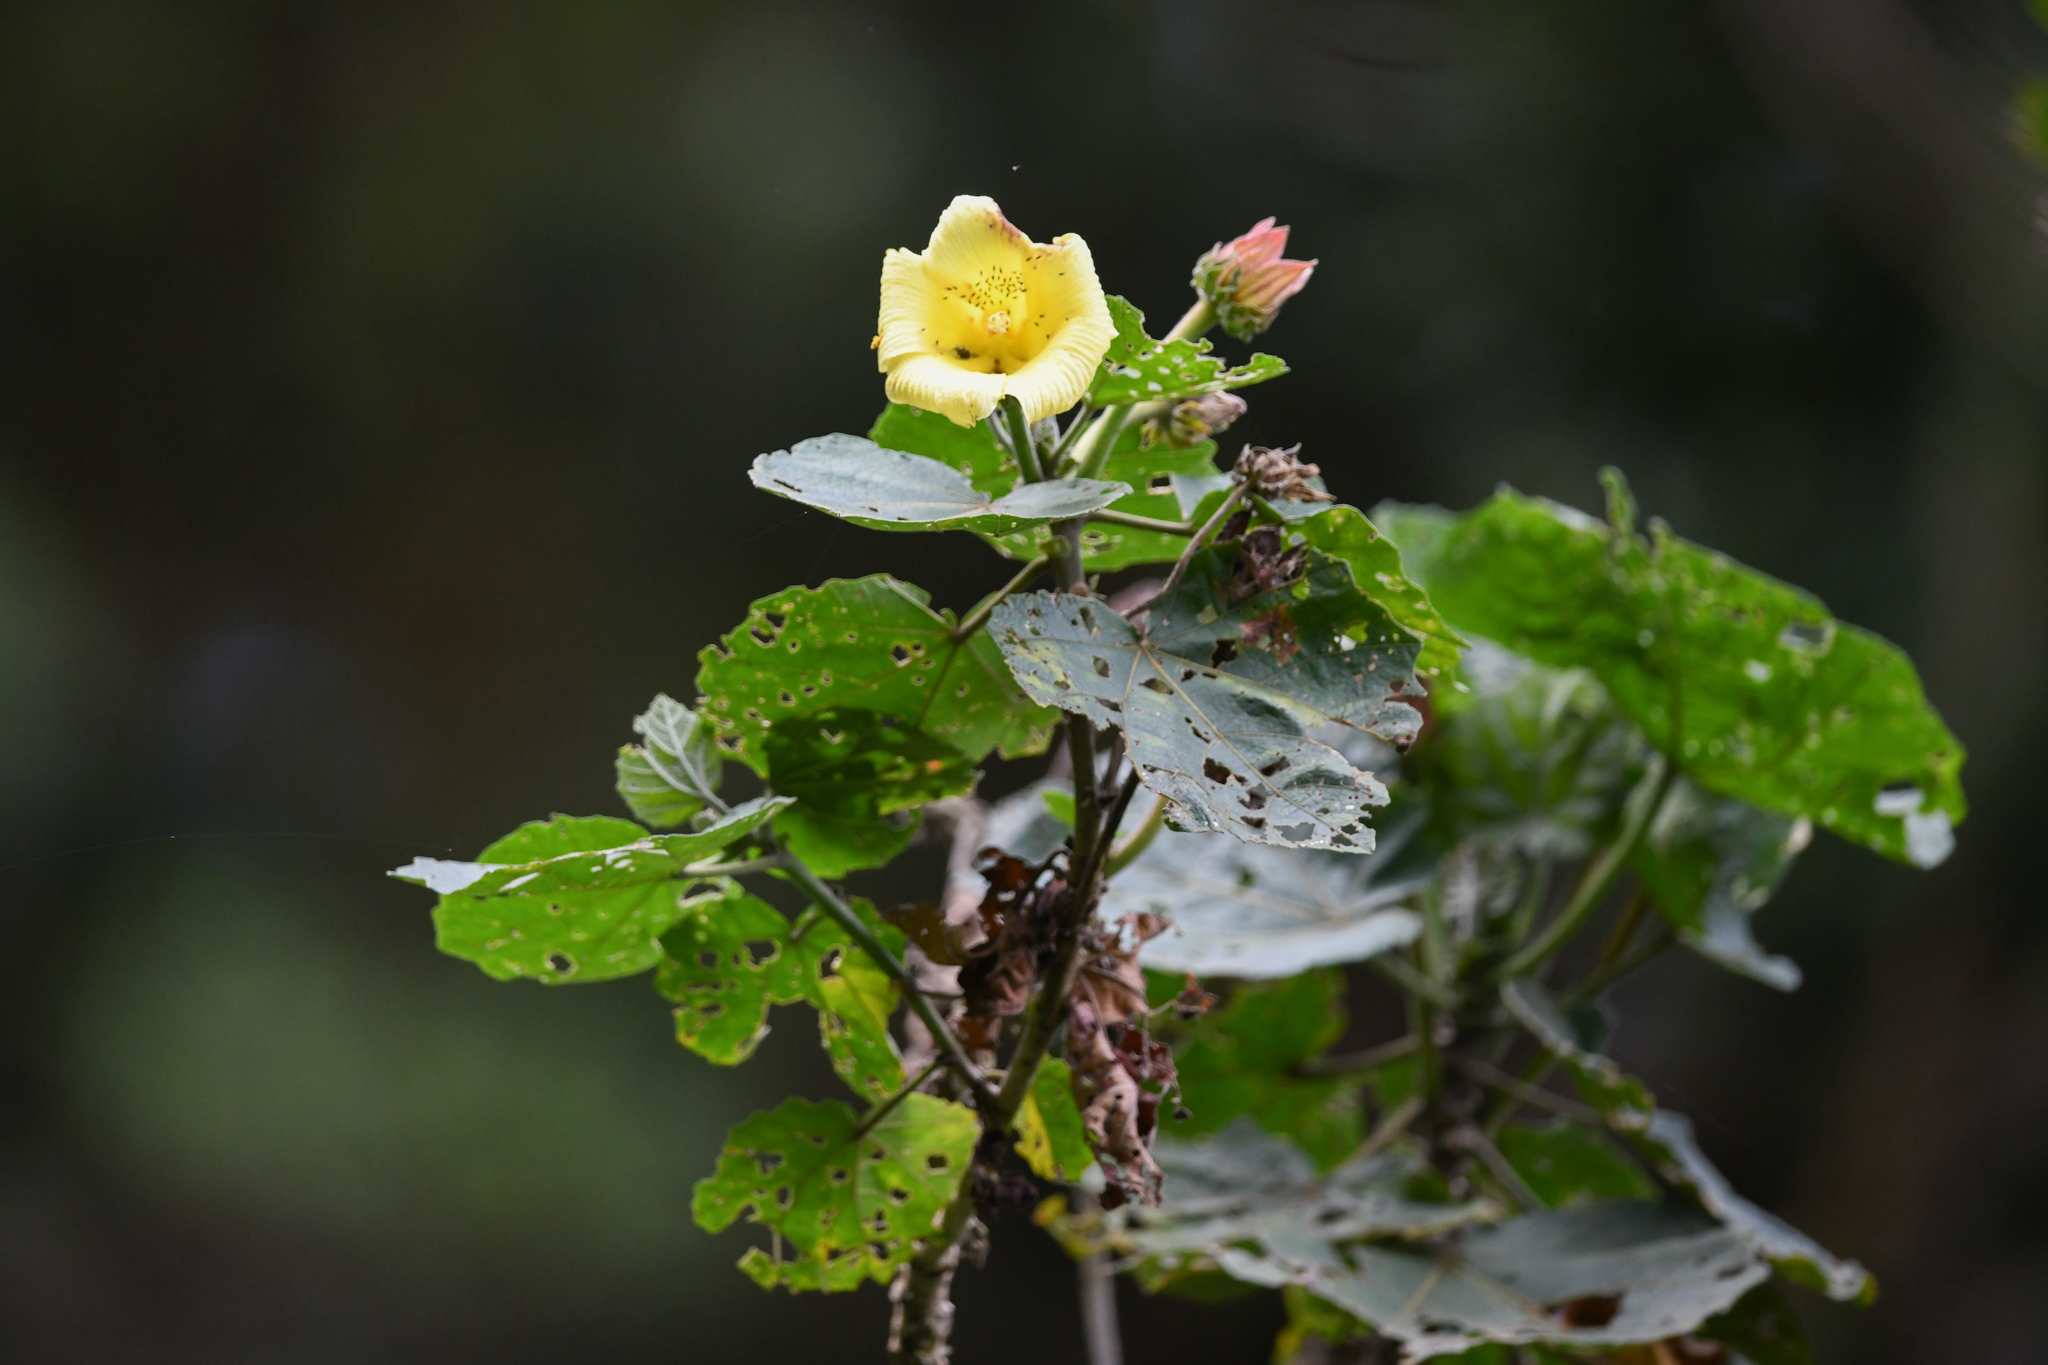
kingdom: Plantae
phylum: Tracheophyta
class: Magnoliopsida
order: Malvales
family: Malvaceae
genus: Wercklea
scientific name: Wercklea woodsonii
